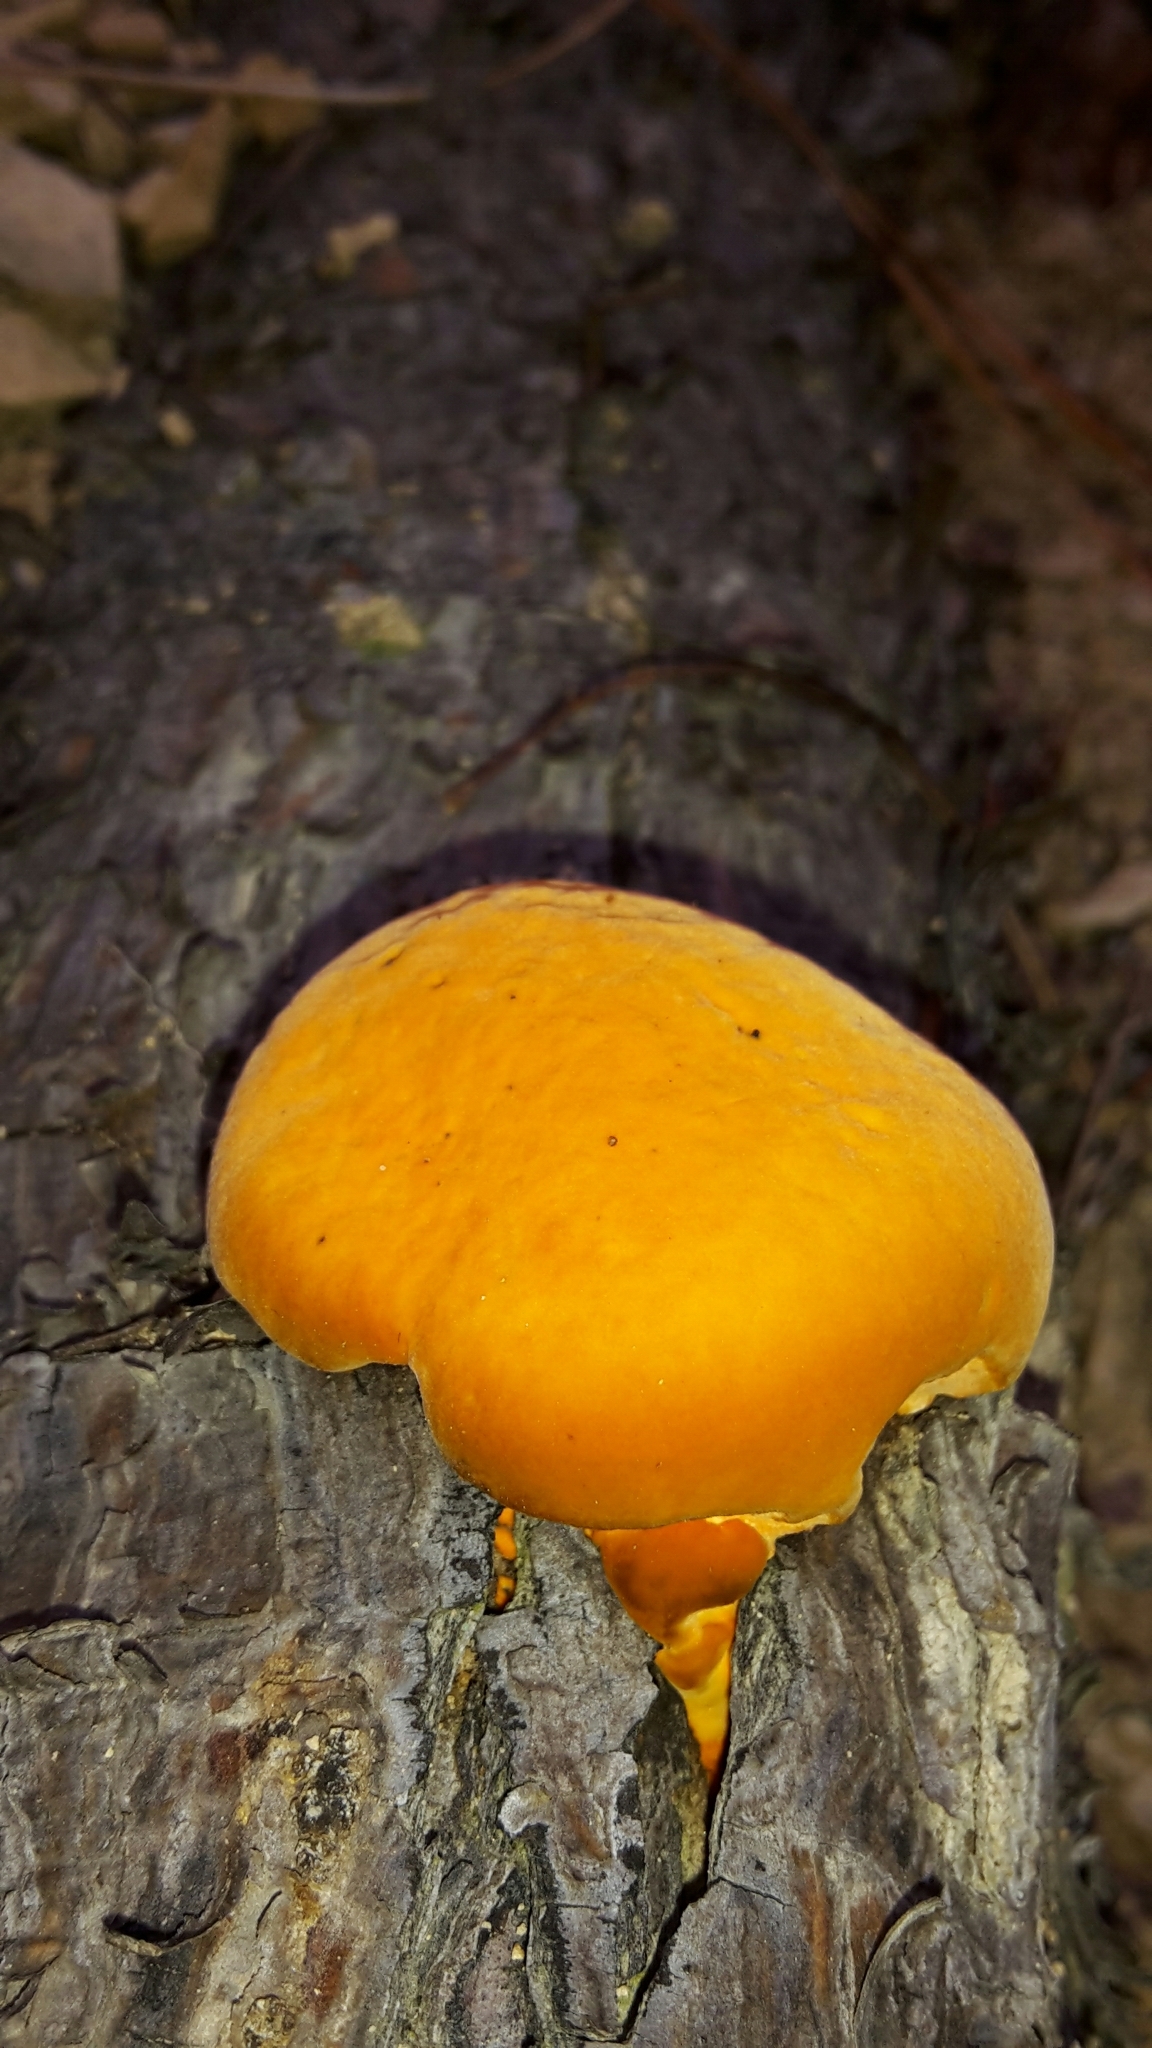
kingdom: Fungi
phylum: Basidiomycota
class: Agaricomycetes
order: Polyporales
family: Polyporaceae
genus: Trametes
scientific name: Trametes coccinea
